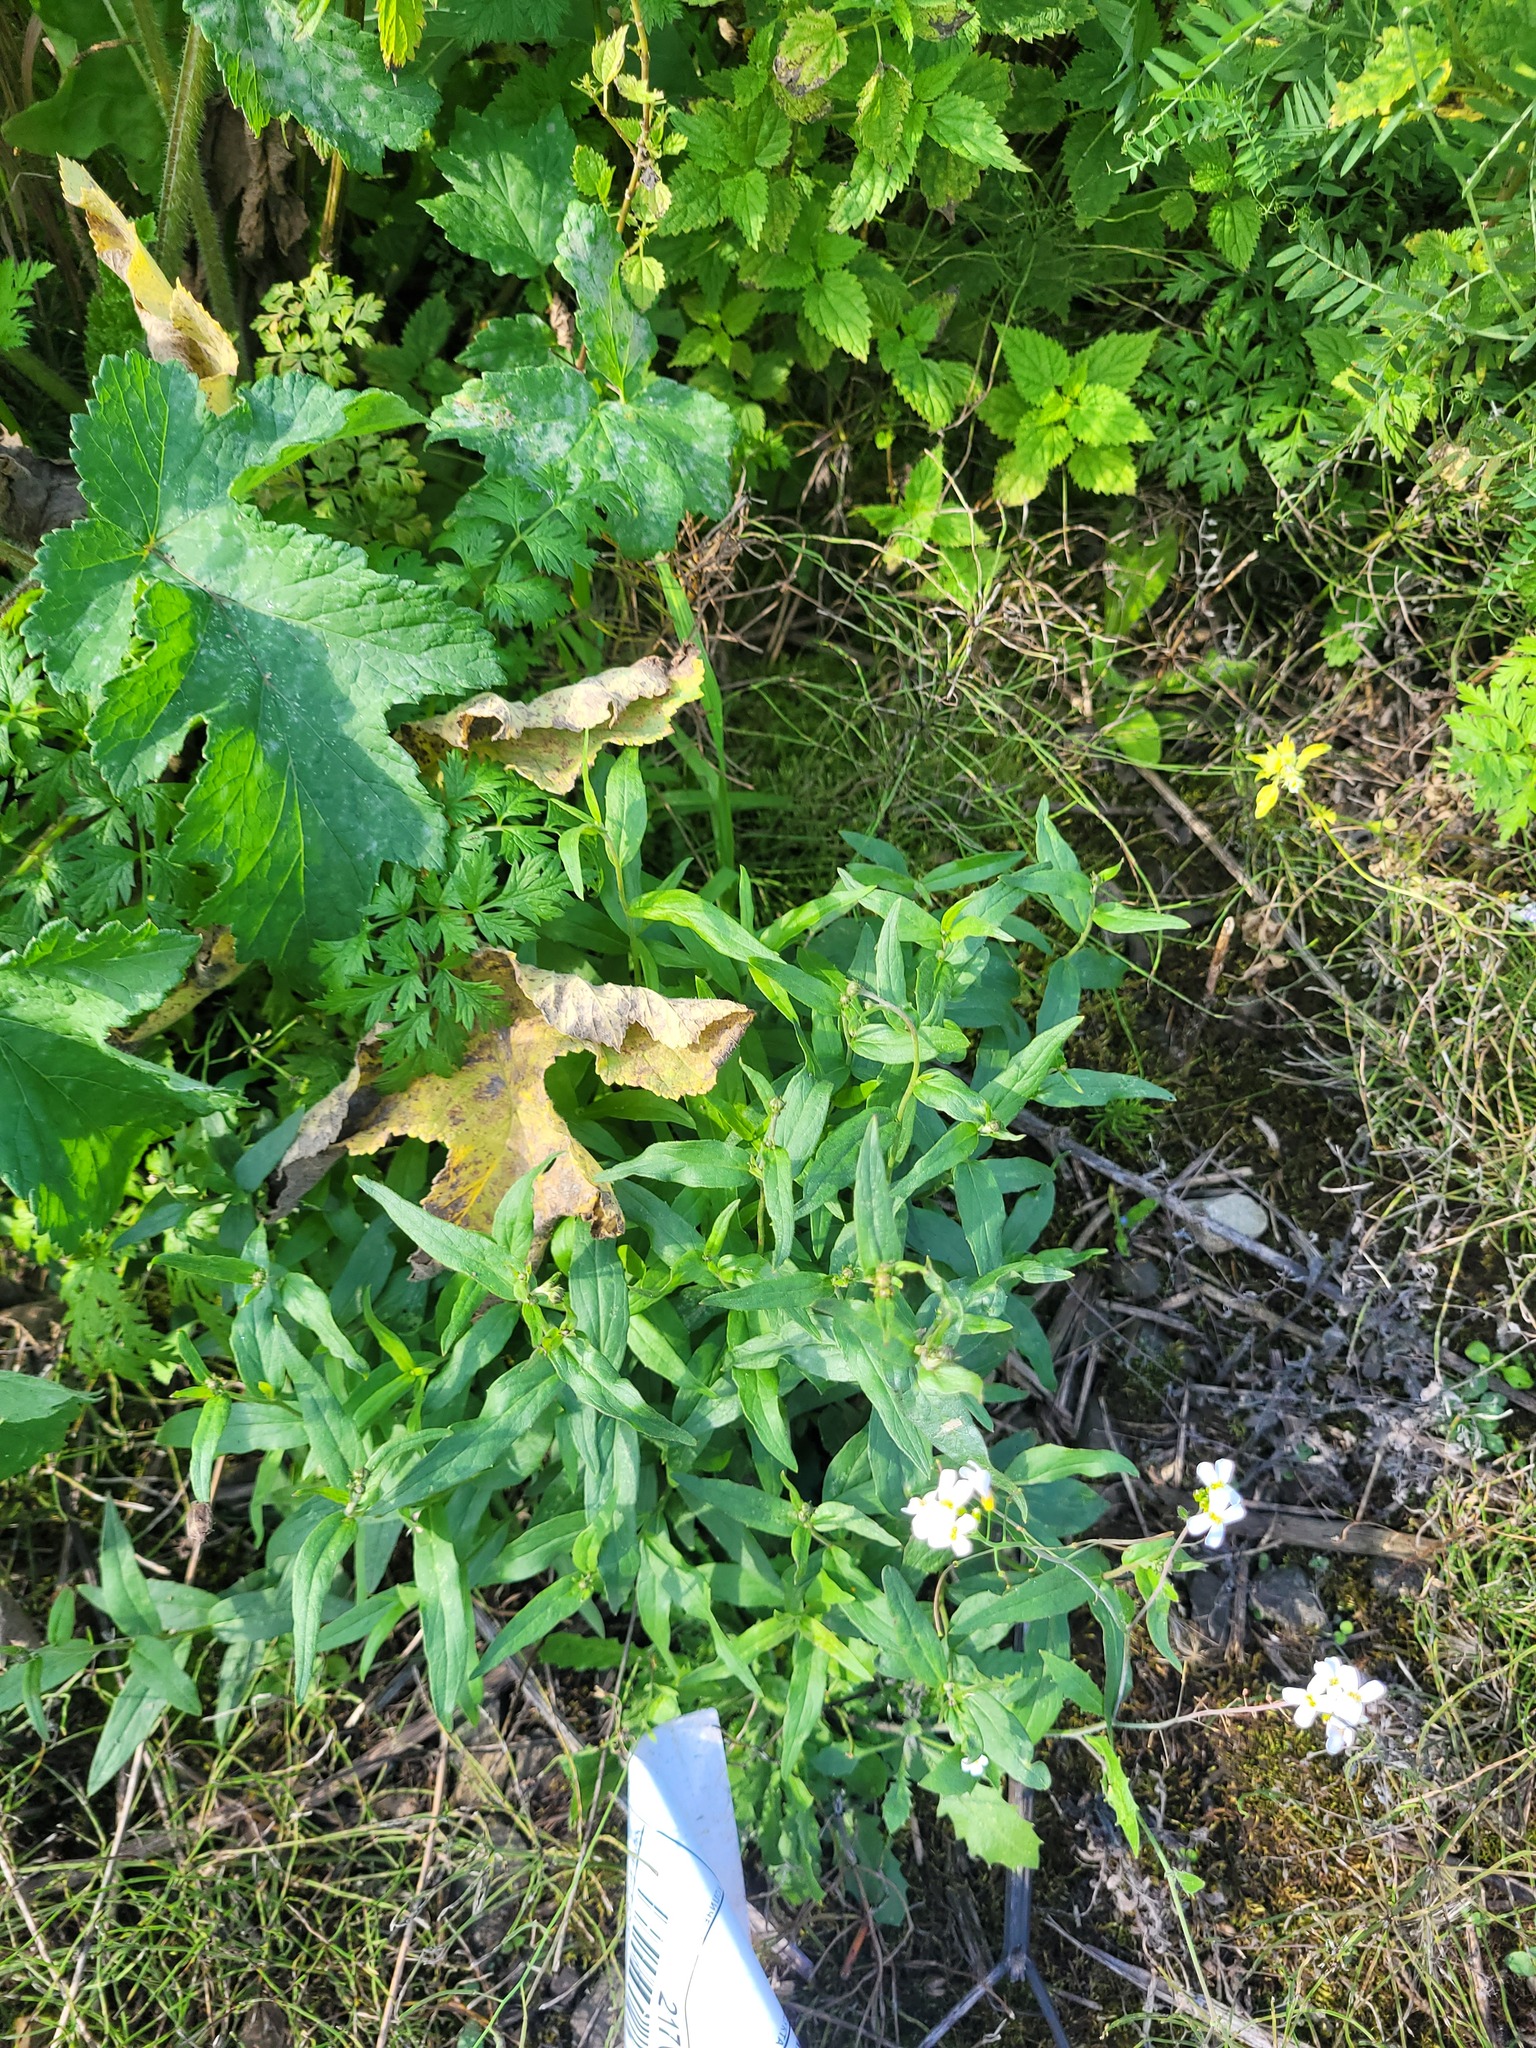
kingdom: Plantae
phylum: Tracheophyta
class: Magnoliopsida
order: Asterales
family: Asteraceae
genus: Hieracium
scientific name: Hieracium umbellatum
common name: Northern hawkweed
